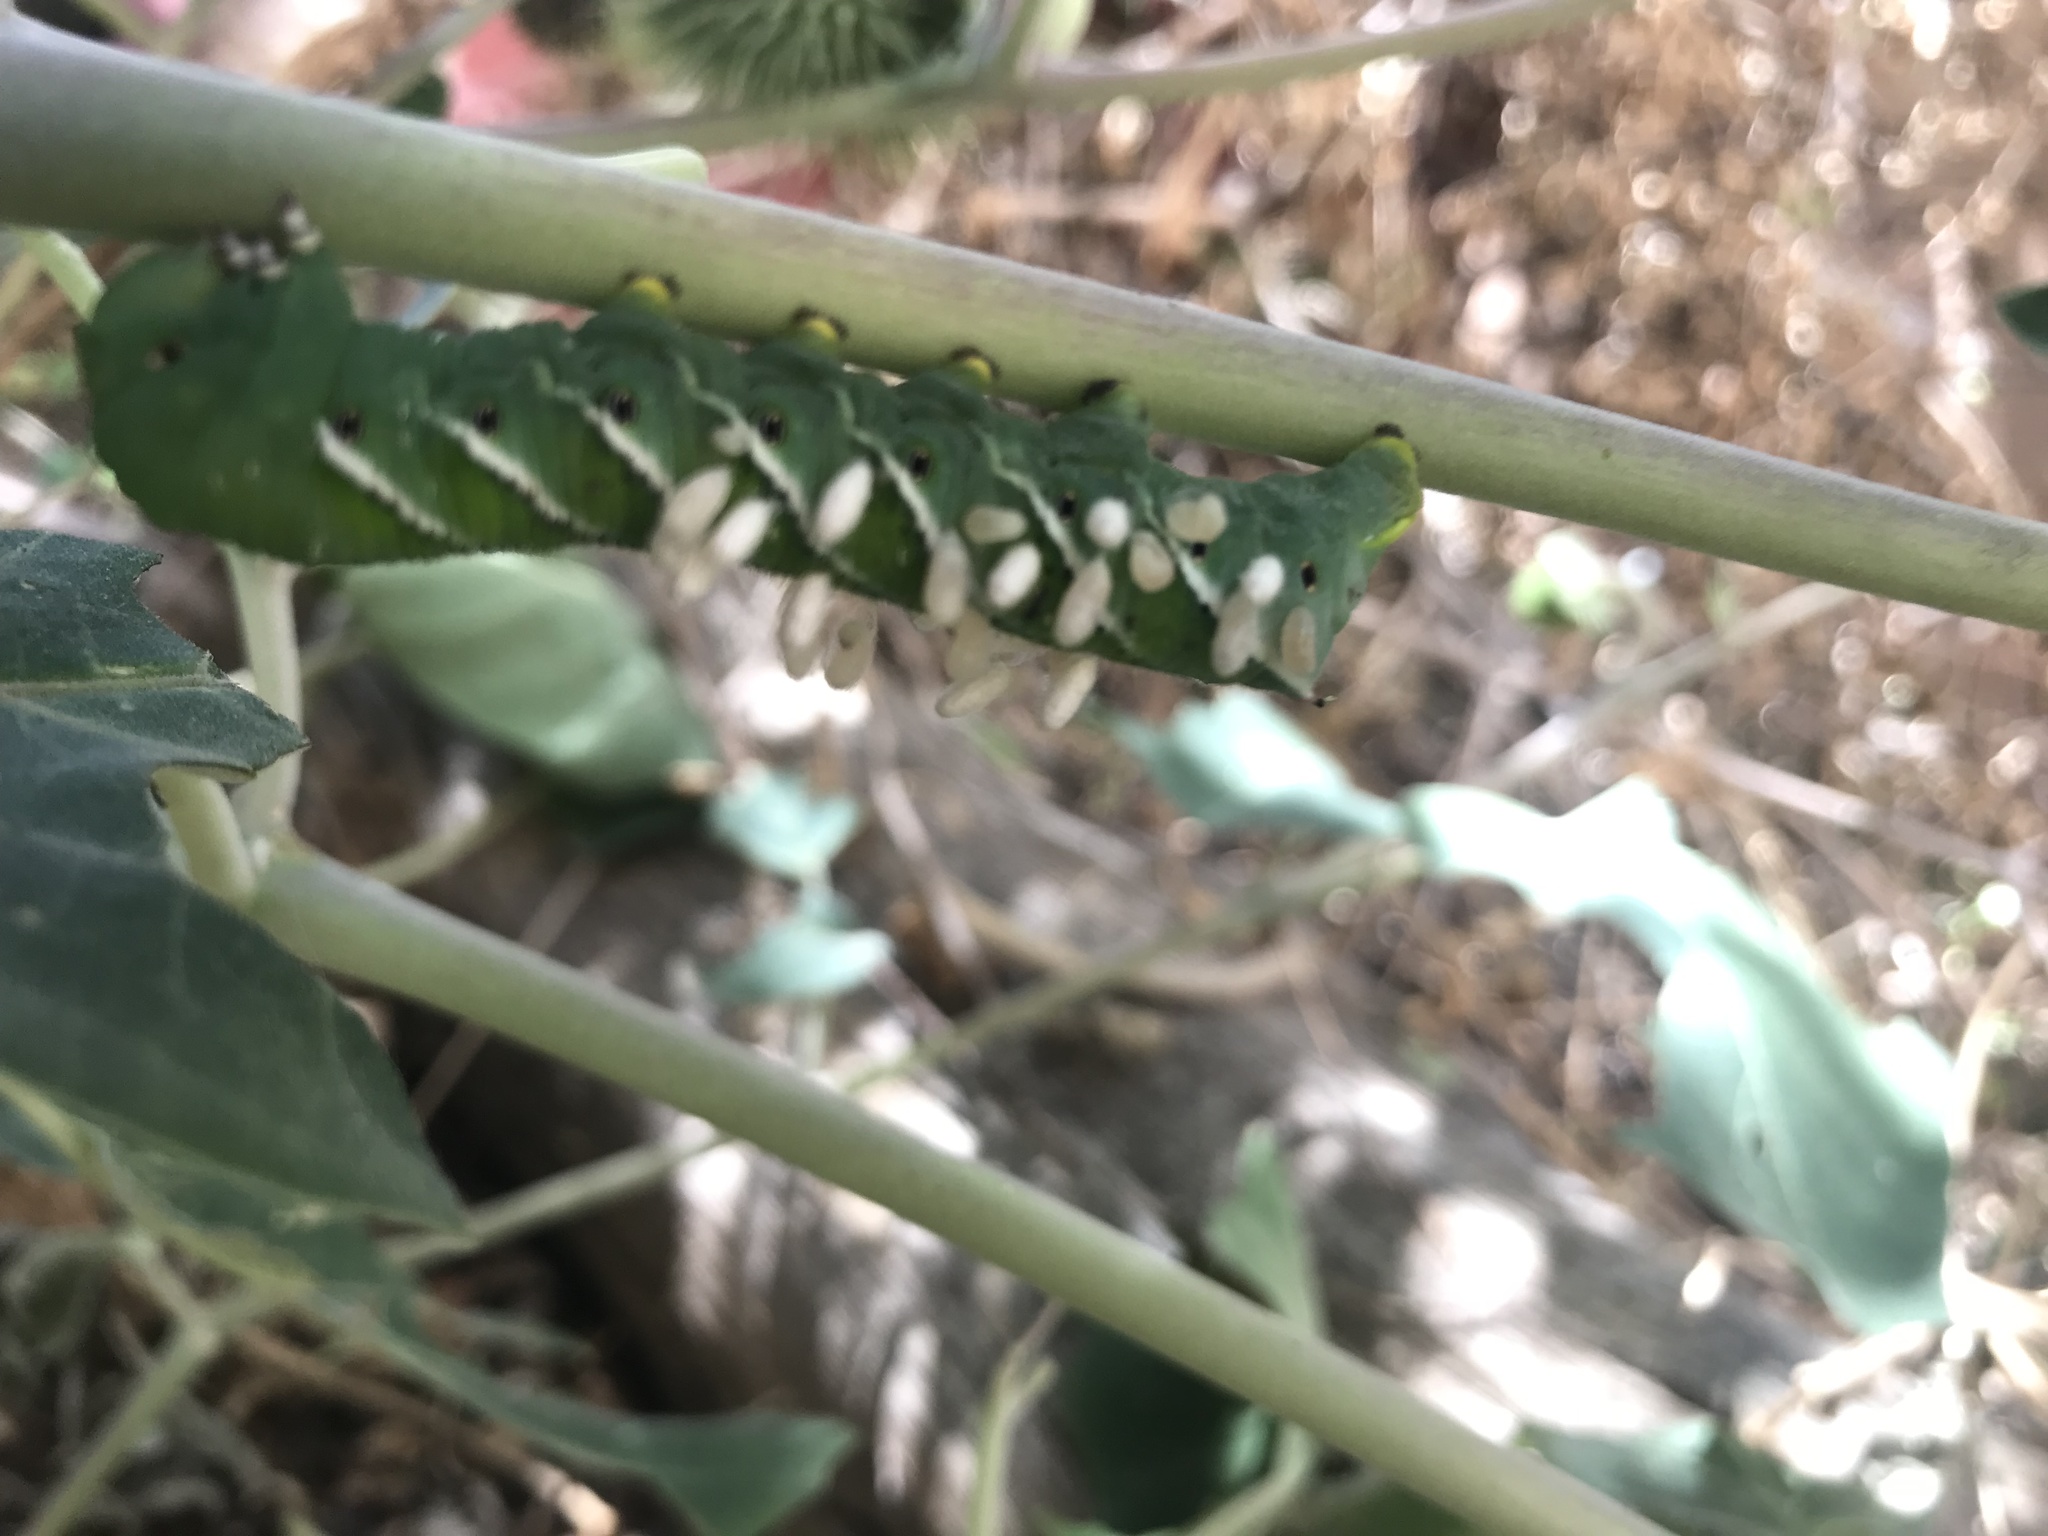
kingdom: Animalia
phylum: Arthropoda
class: Insecta
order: Lepidoptera
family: Sphingidae
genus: Manduca
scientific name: Manduca sexta
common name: Carolina sphinx
